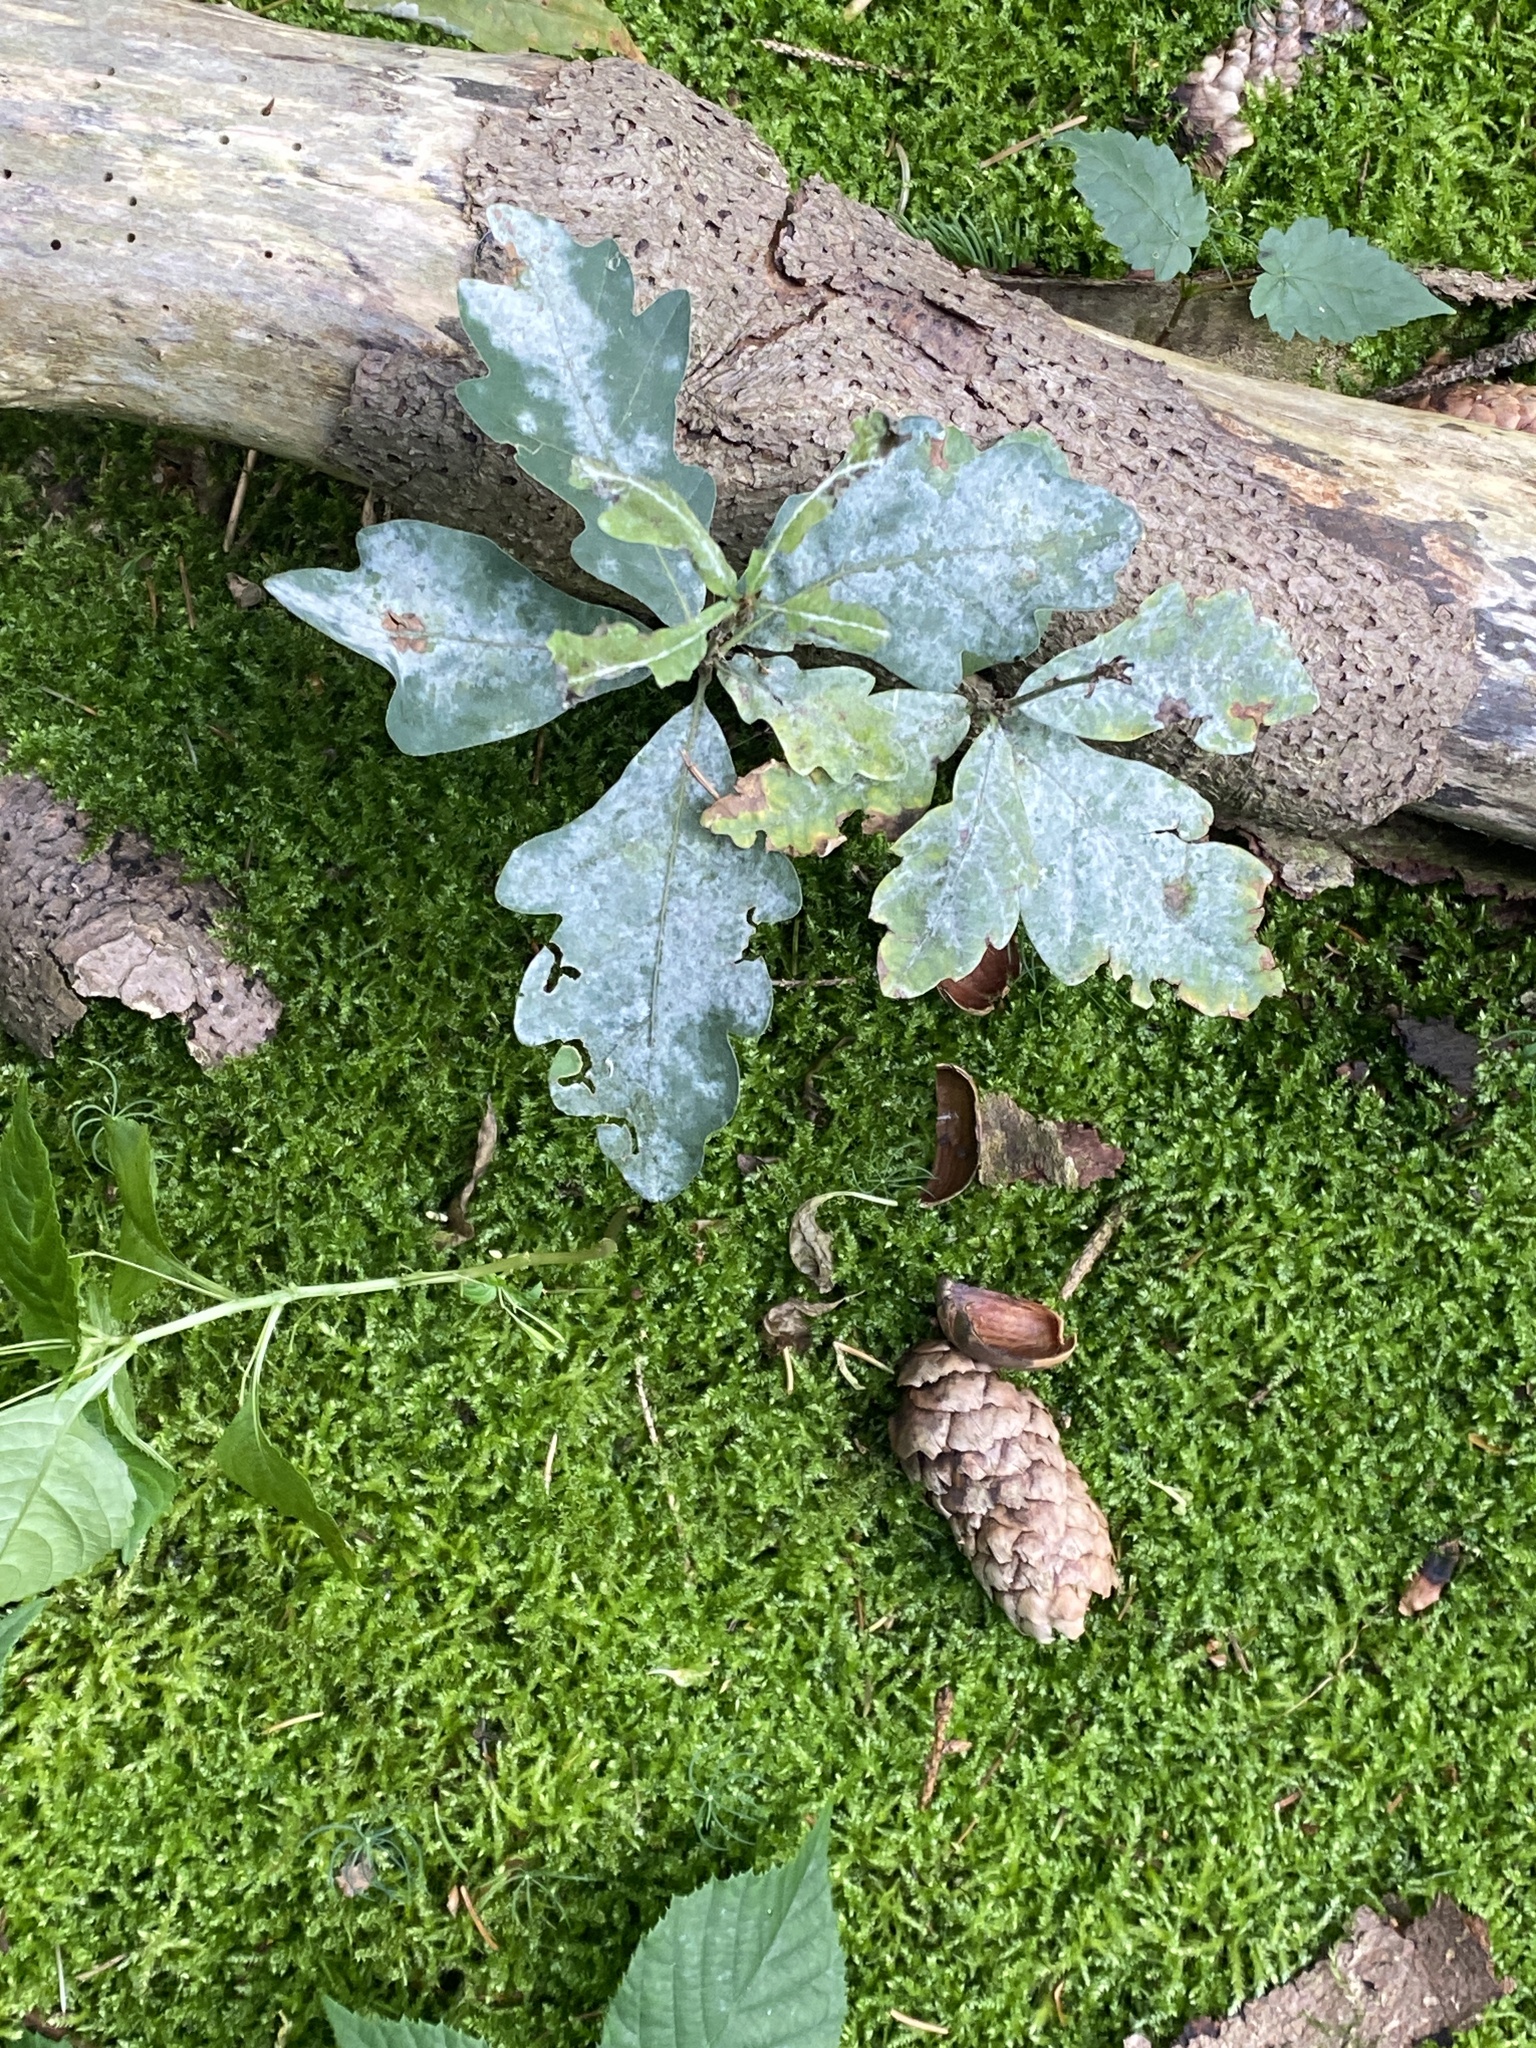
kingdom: Plantae
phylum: Tracheophyta
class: Magnoliopsida
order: Fagales
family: Fagaceae
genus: Quercus
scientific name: Quercus robur
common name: Pedunculate oak
